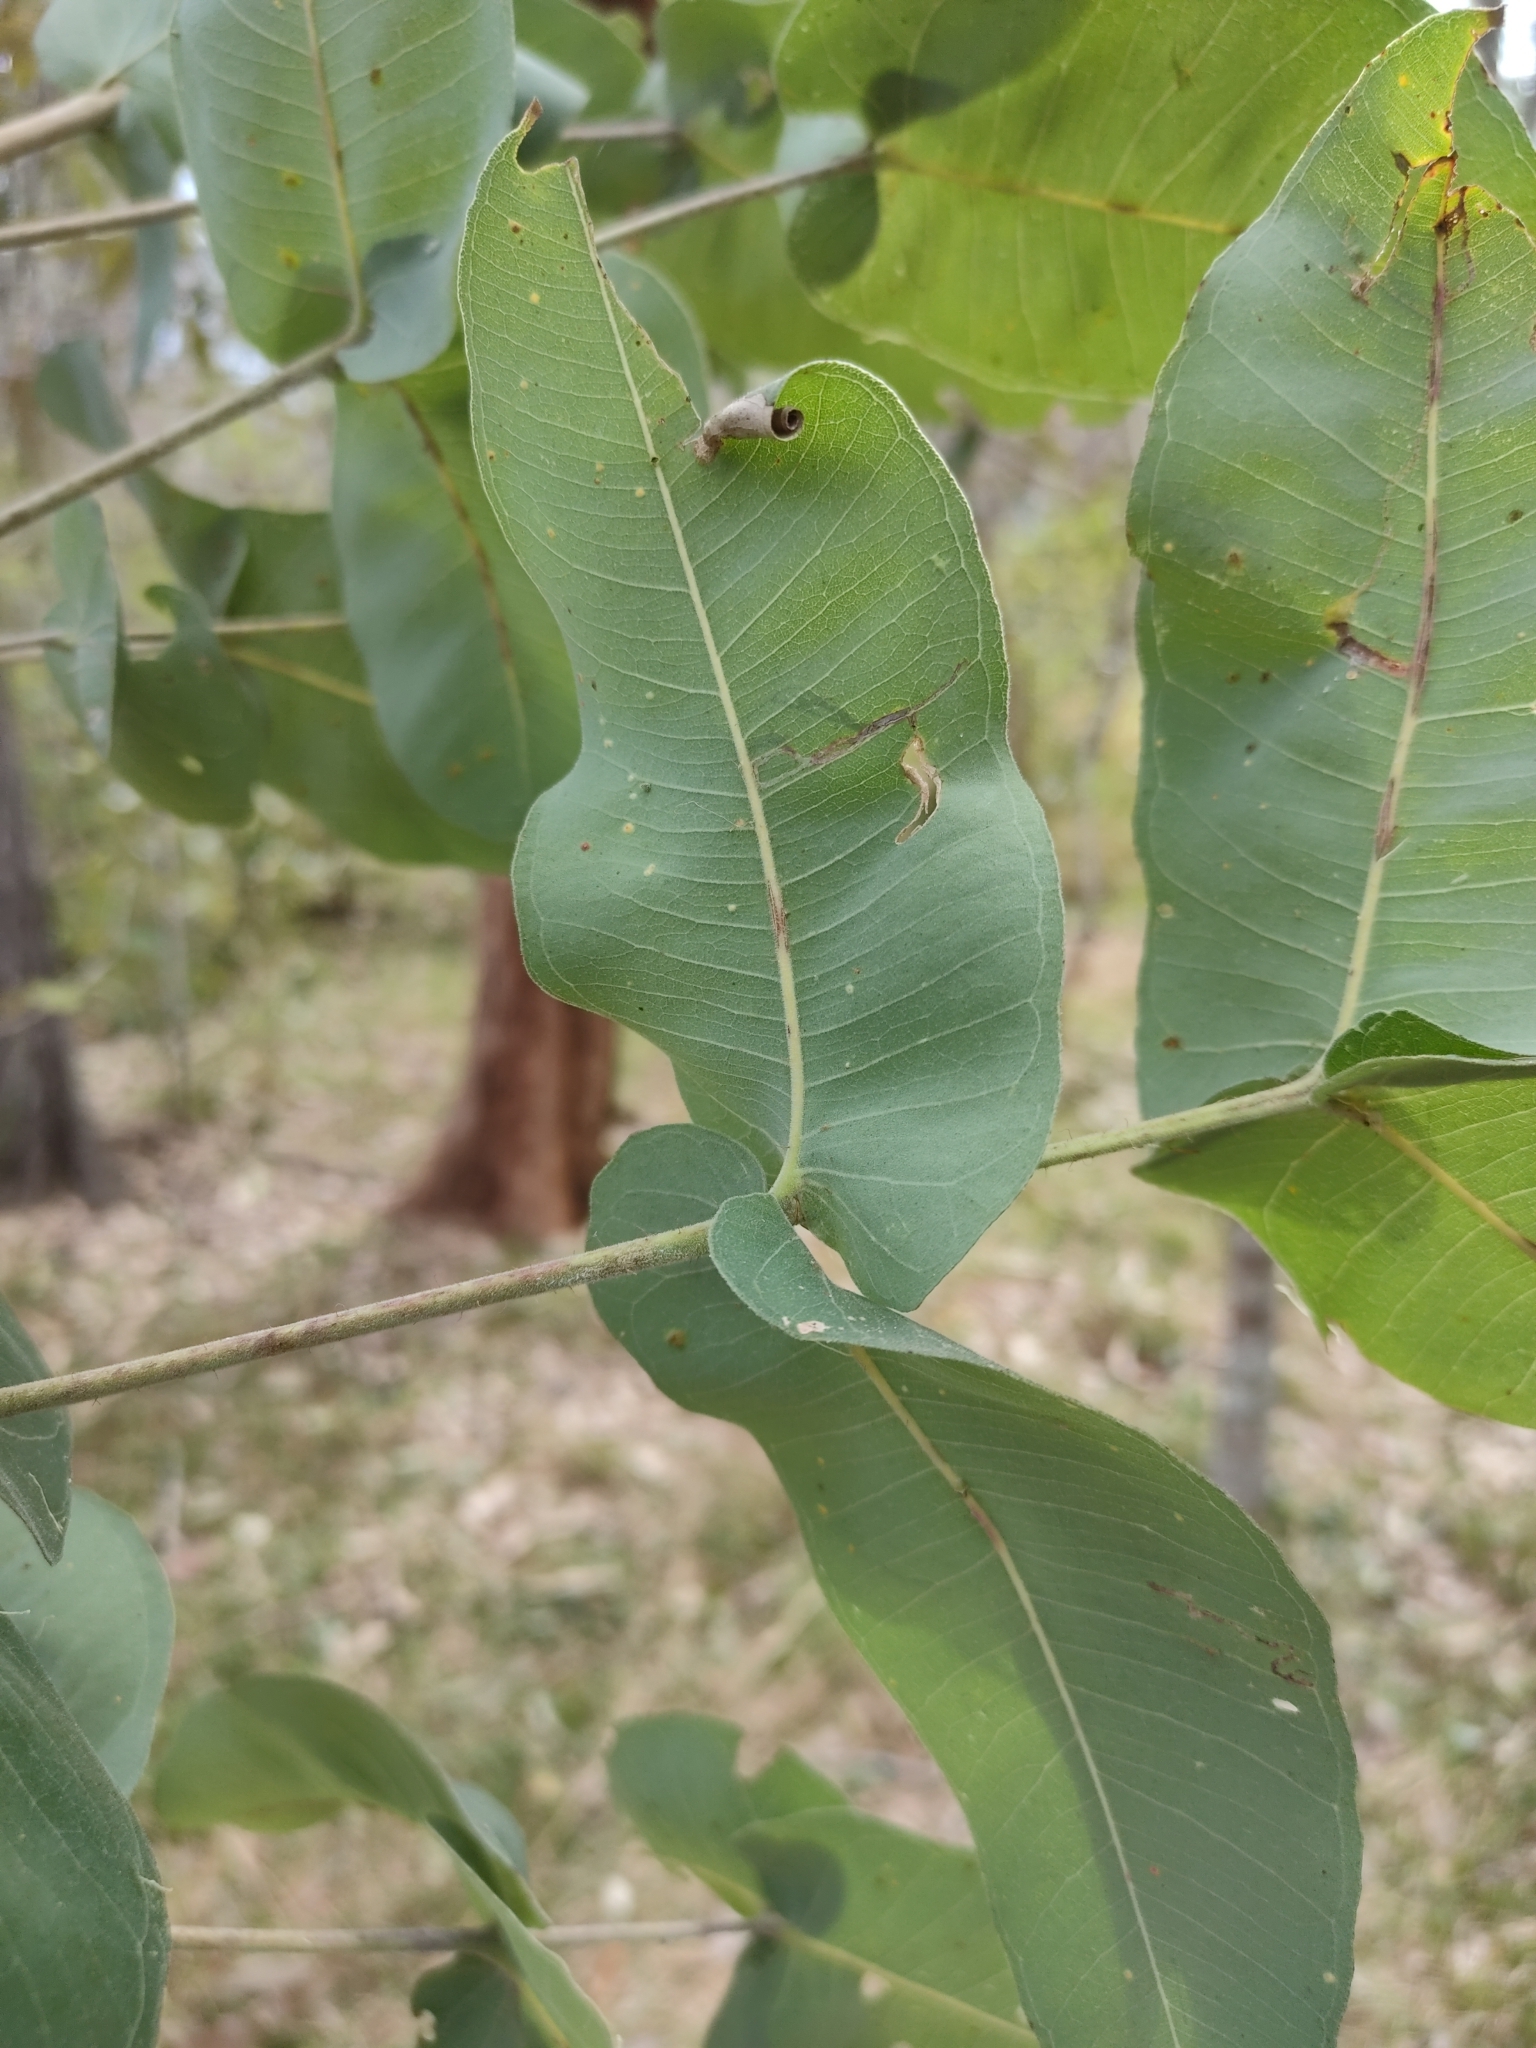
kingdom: Plantae
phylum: Tracheophyta
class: Magnoliopsida
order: Myrtales
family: Myrtaceae
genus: Angophora
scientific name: Angophora subvelutina
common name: Broad-leaved apple
